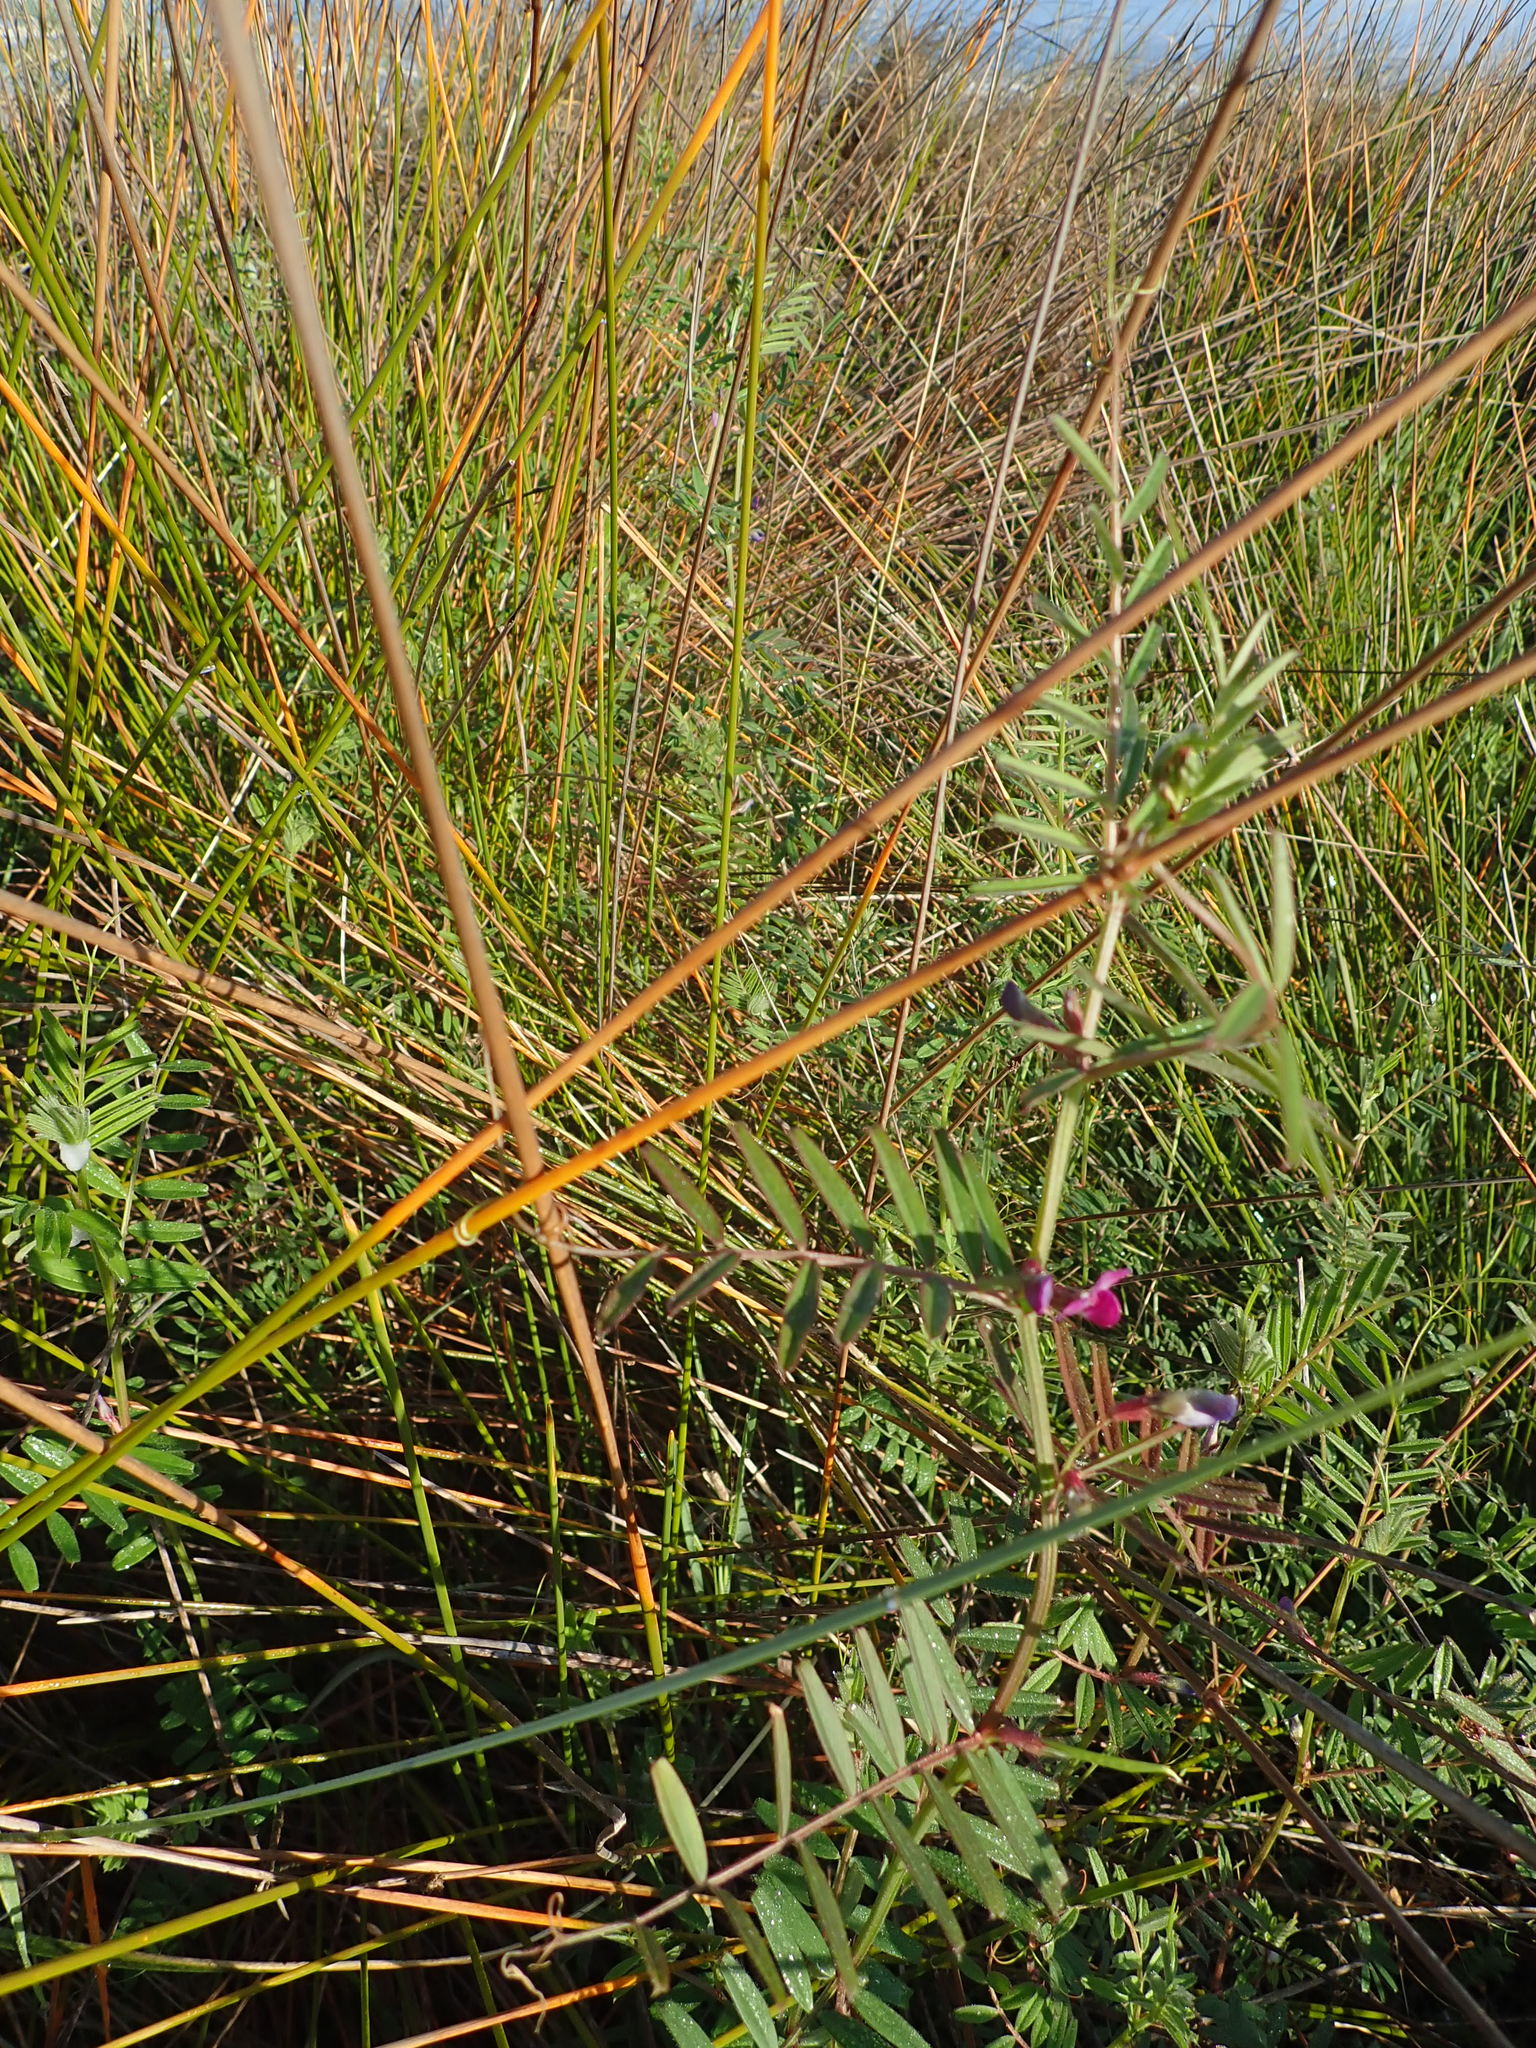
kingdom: Plantae
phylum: Tracheophyta
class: Magnoliopsida
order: Fabales
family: Fabaceae
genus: Vicia
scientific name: Vicia sativa
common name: Garden vetch
